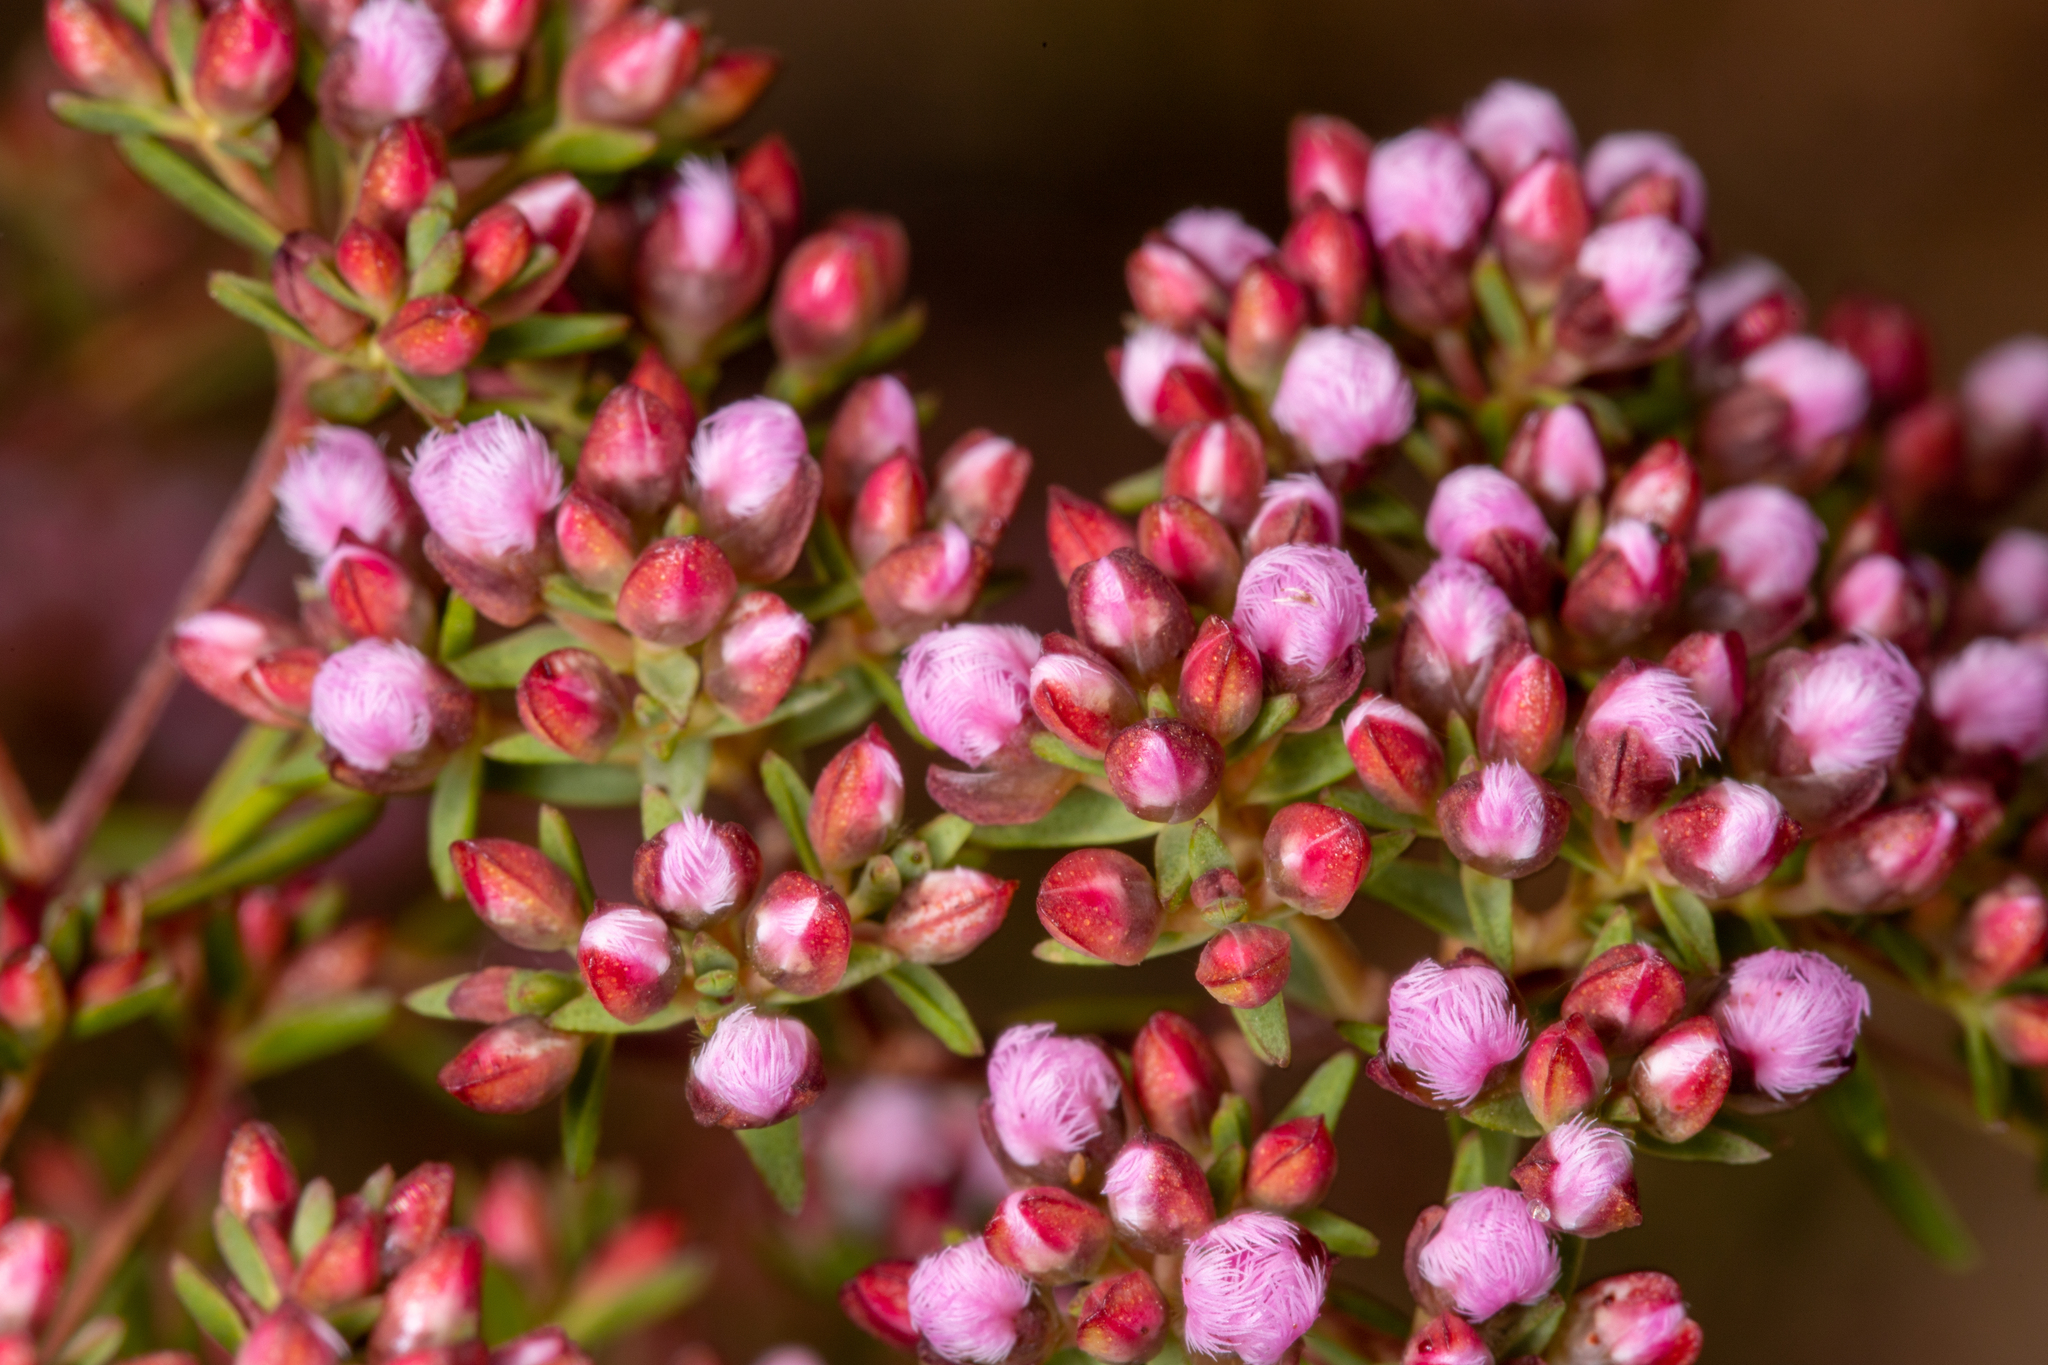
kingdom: Plantae
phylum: Tracheophyta
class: Magnoliopsida
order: Myrtales
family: Myrtaceae
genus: Verticordia
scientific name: Verticordia densiflora
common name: Compact feather-flower
